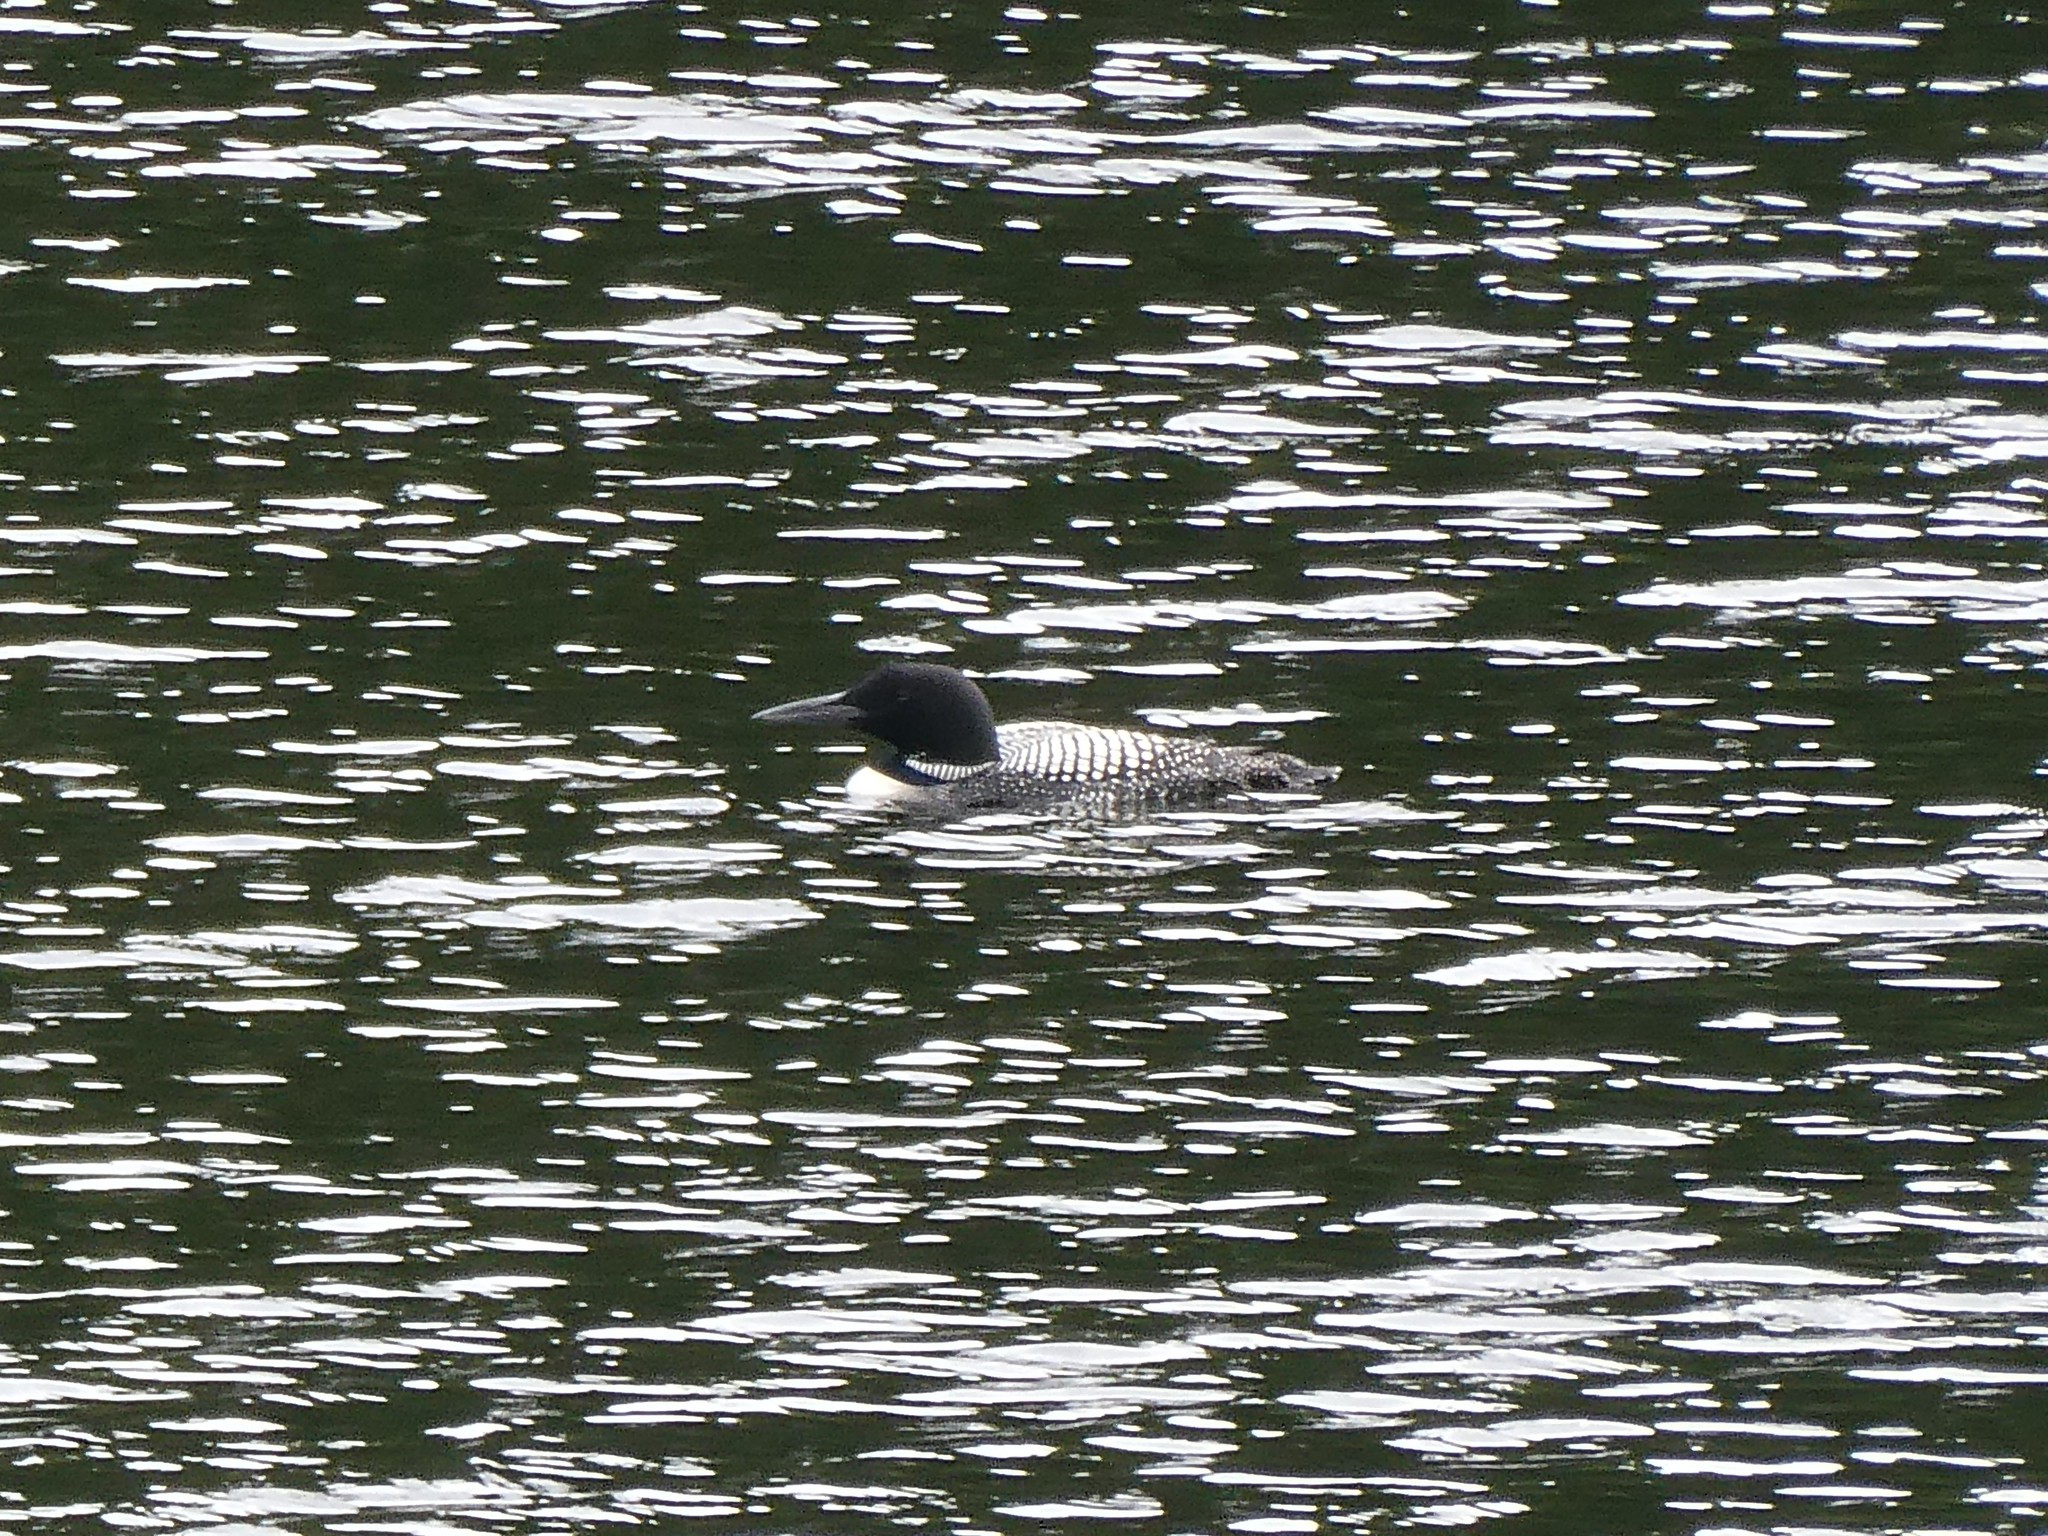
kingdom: Animalia
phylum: Chordata
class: Aves
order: Gaviiformes
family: Gaviidae
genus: Gavia
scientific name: Gavia immer
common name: Common loon
